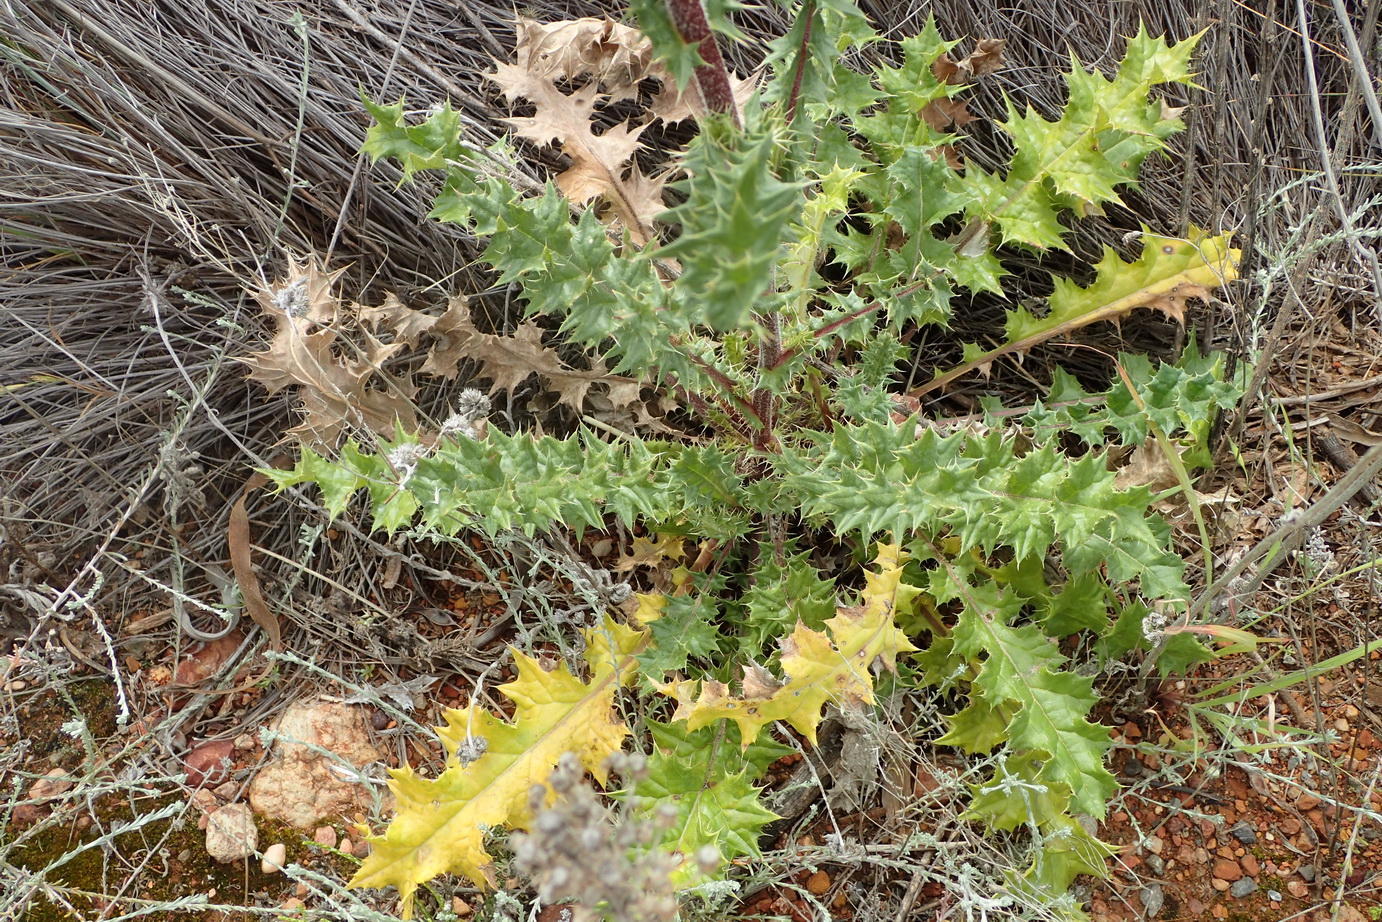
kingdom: Plantae
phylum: Tracheophyta
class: Magnoliopsida
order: Asterales
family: Asteraceae
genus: Berkheya
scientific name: Berkheya onobromoides
